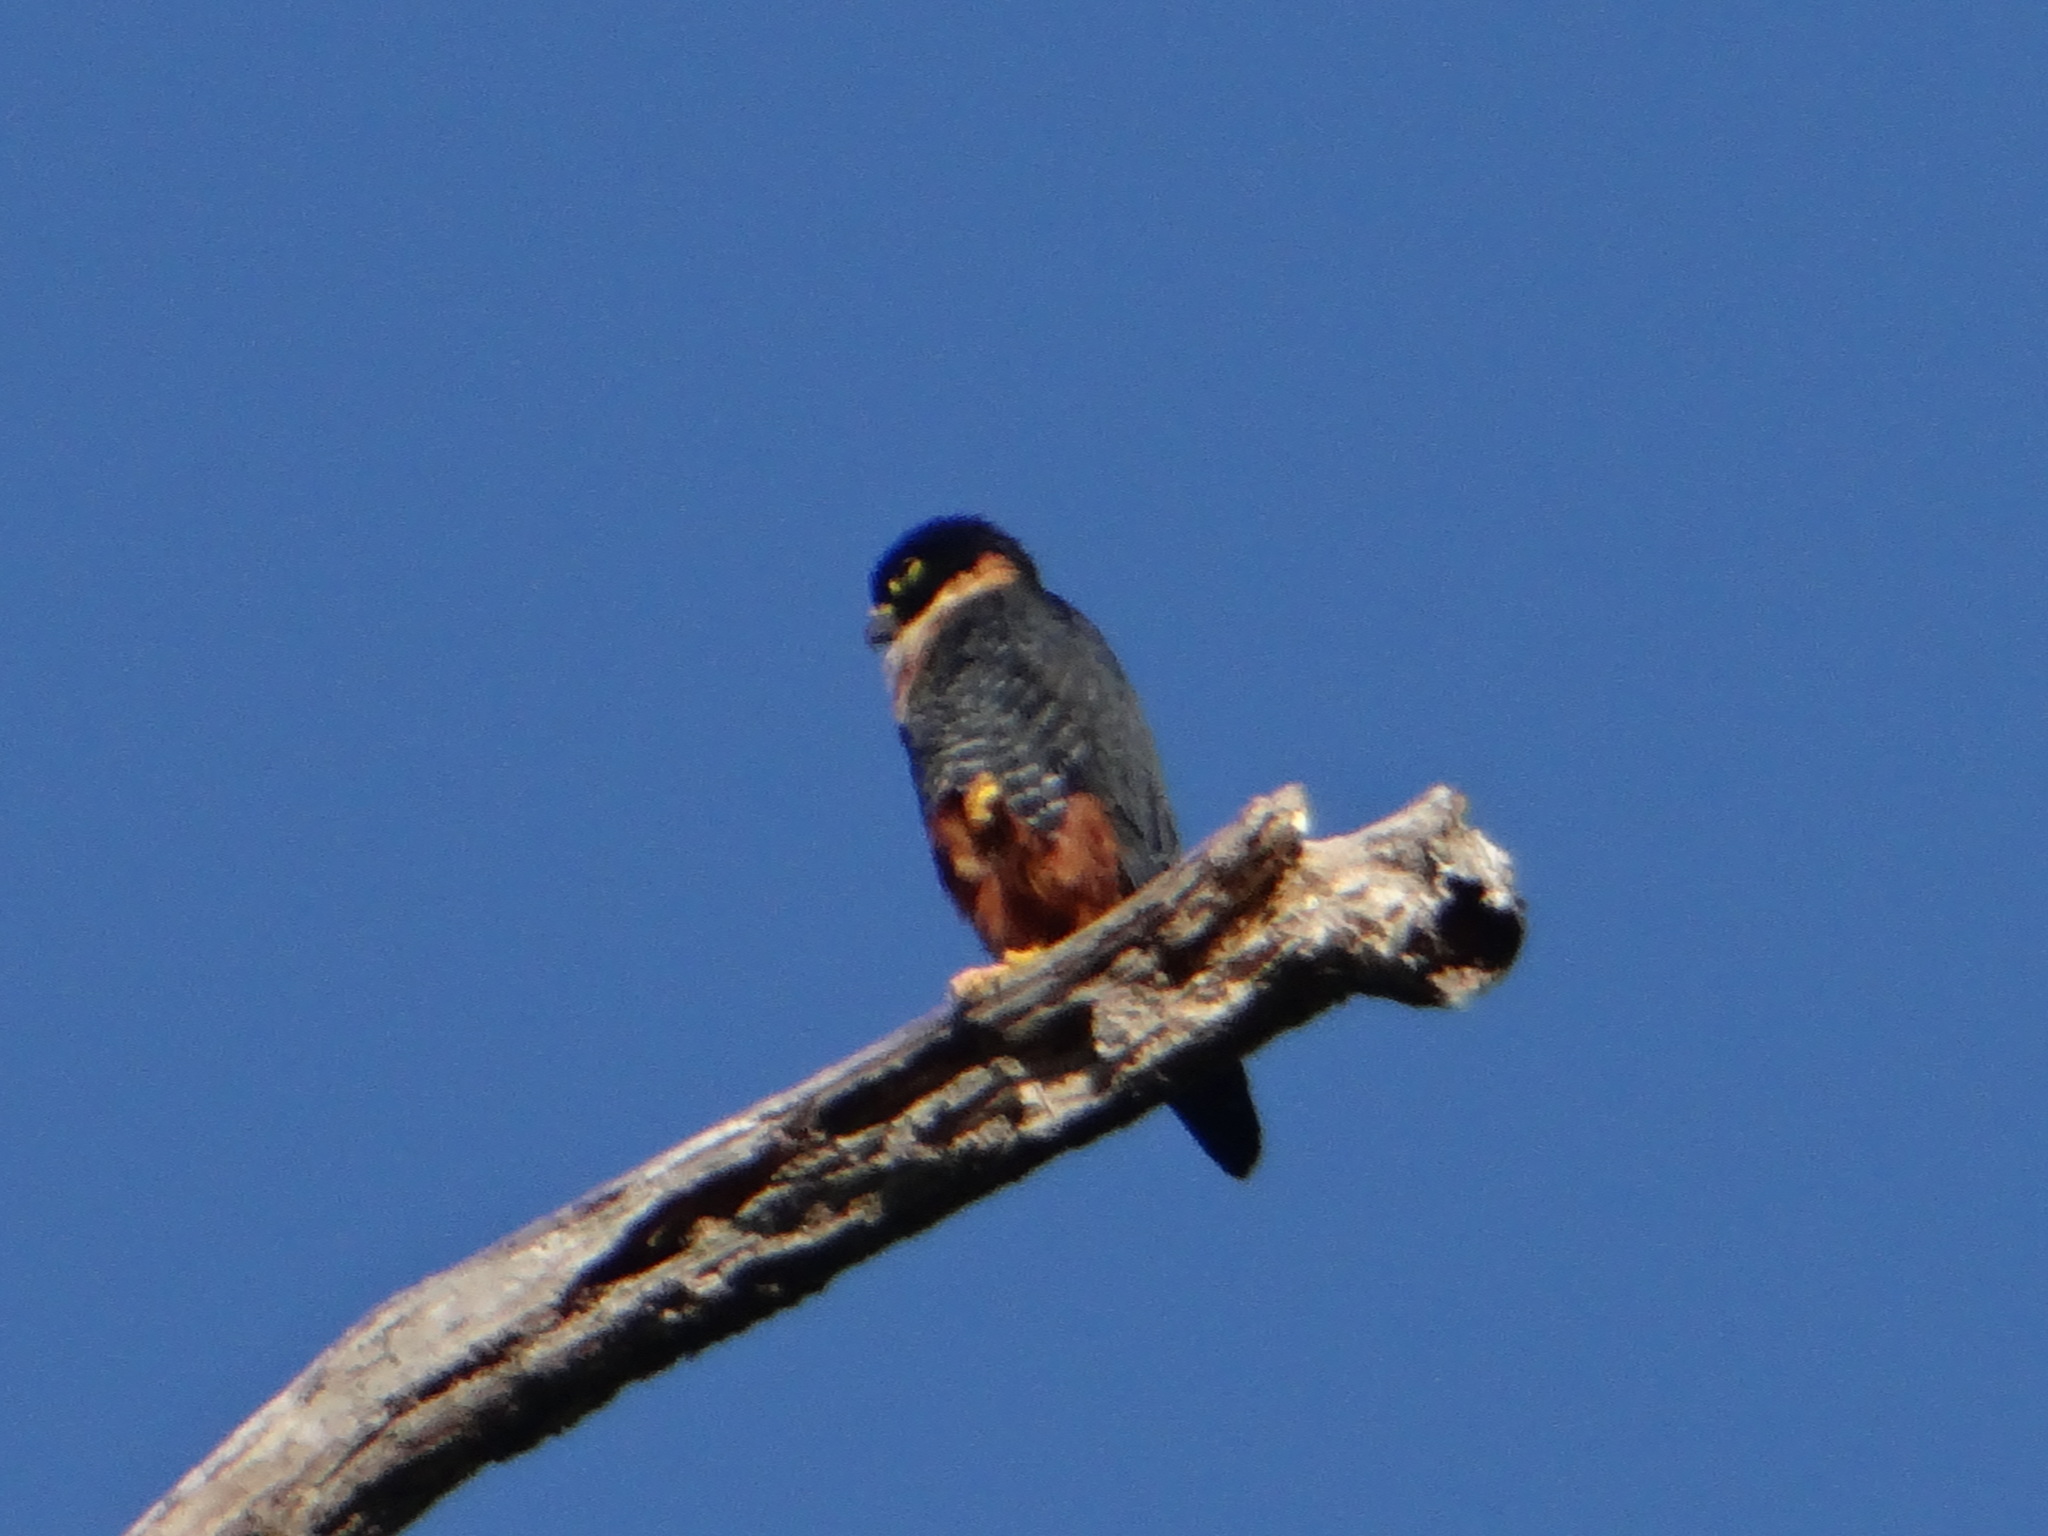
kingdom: Animalia
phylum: Chordata
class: Aves
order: Falconiformes
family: Falconidae
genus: Falco
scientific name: Falco rufigularis
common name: Bat falcon
